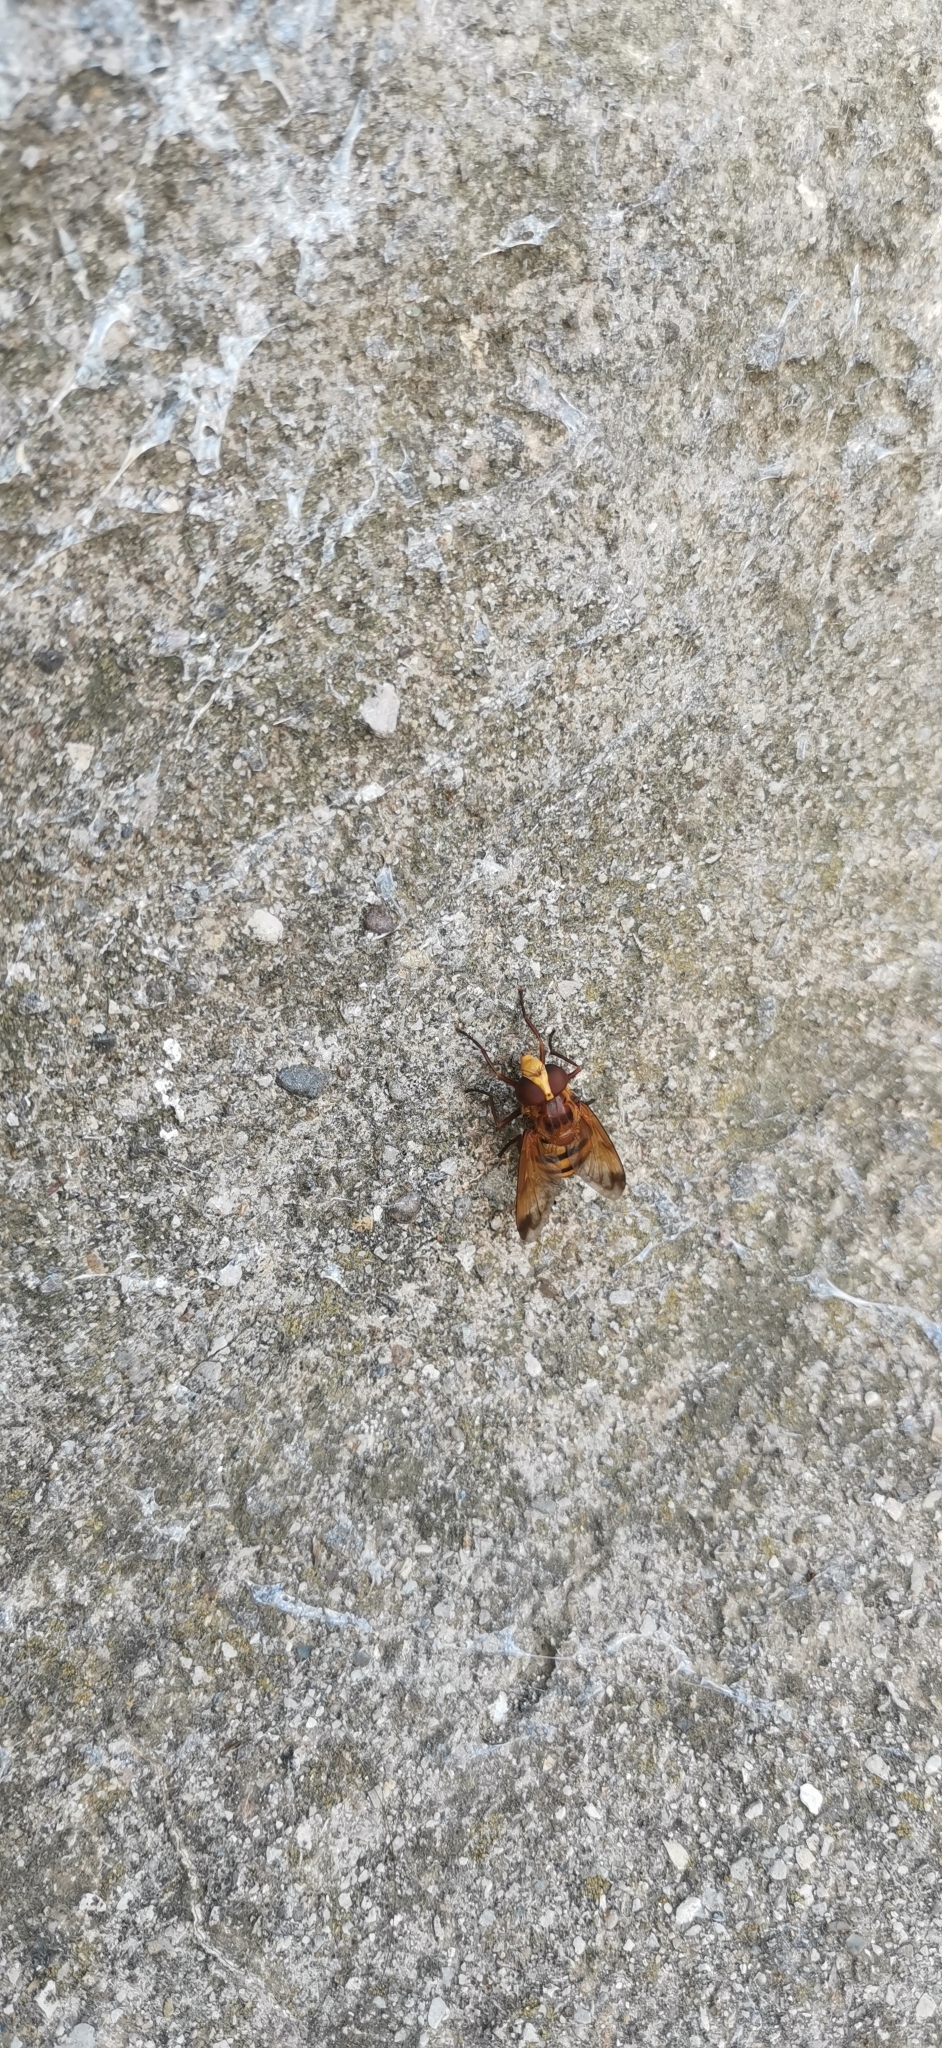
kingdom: Animalia
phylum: Arthropoda
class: Insecta
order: Diptera
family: Syrphidae
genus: Volucella
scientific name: Volucella inanis
